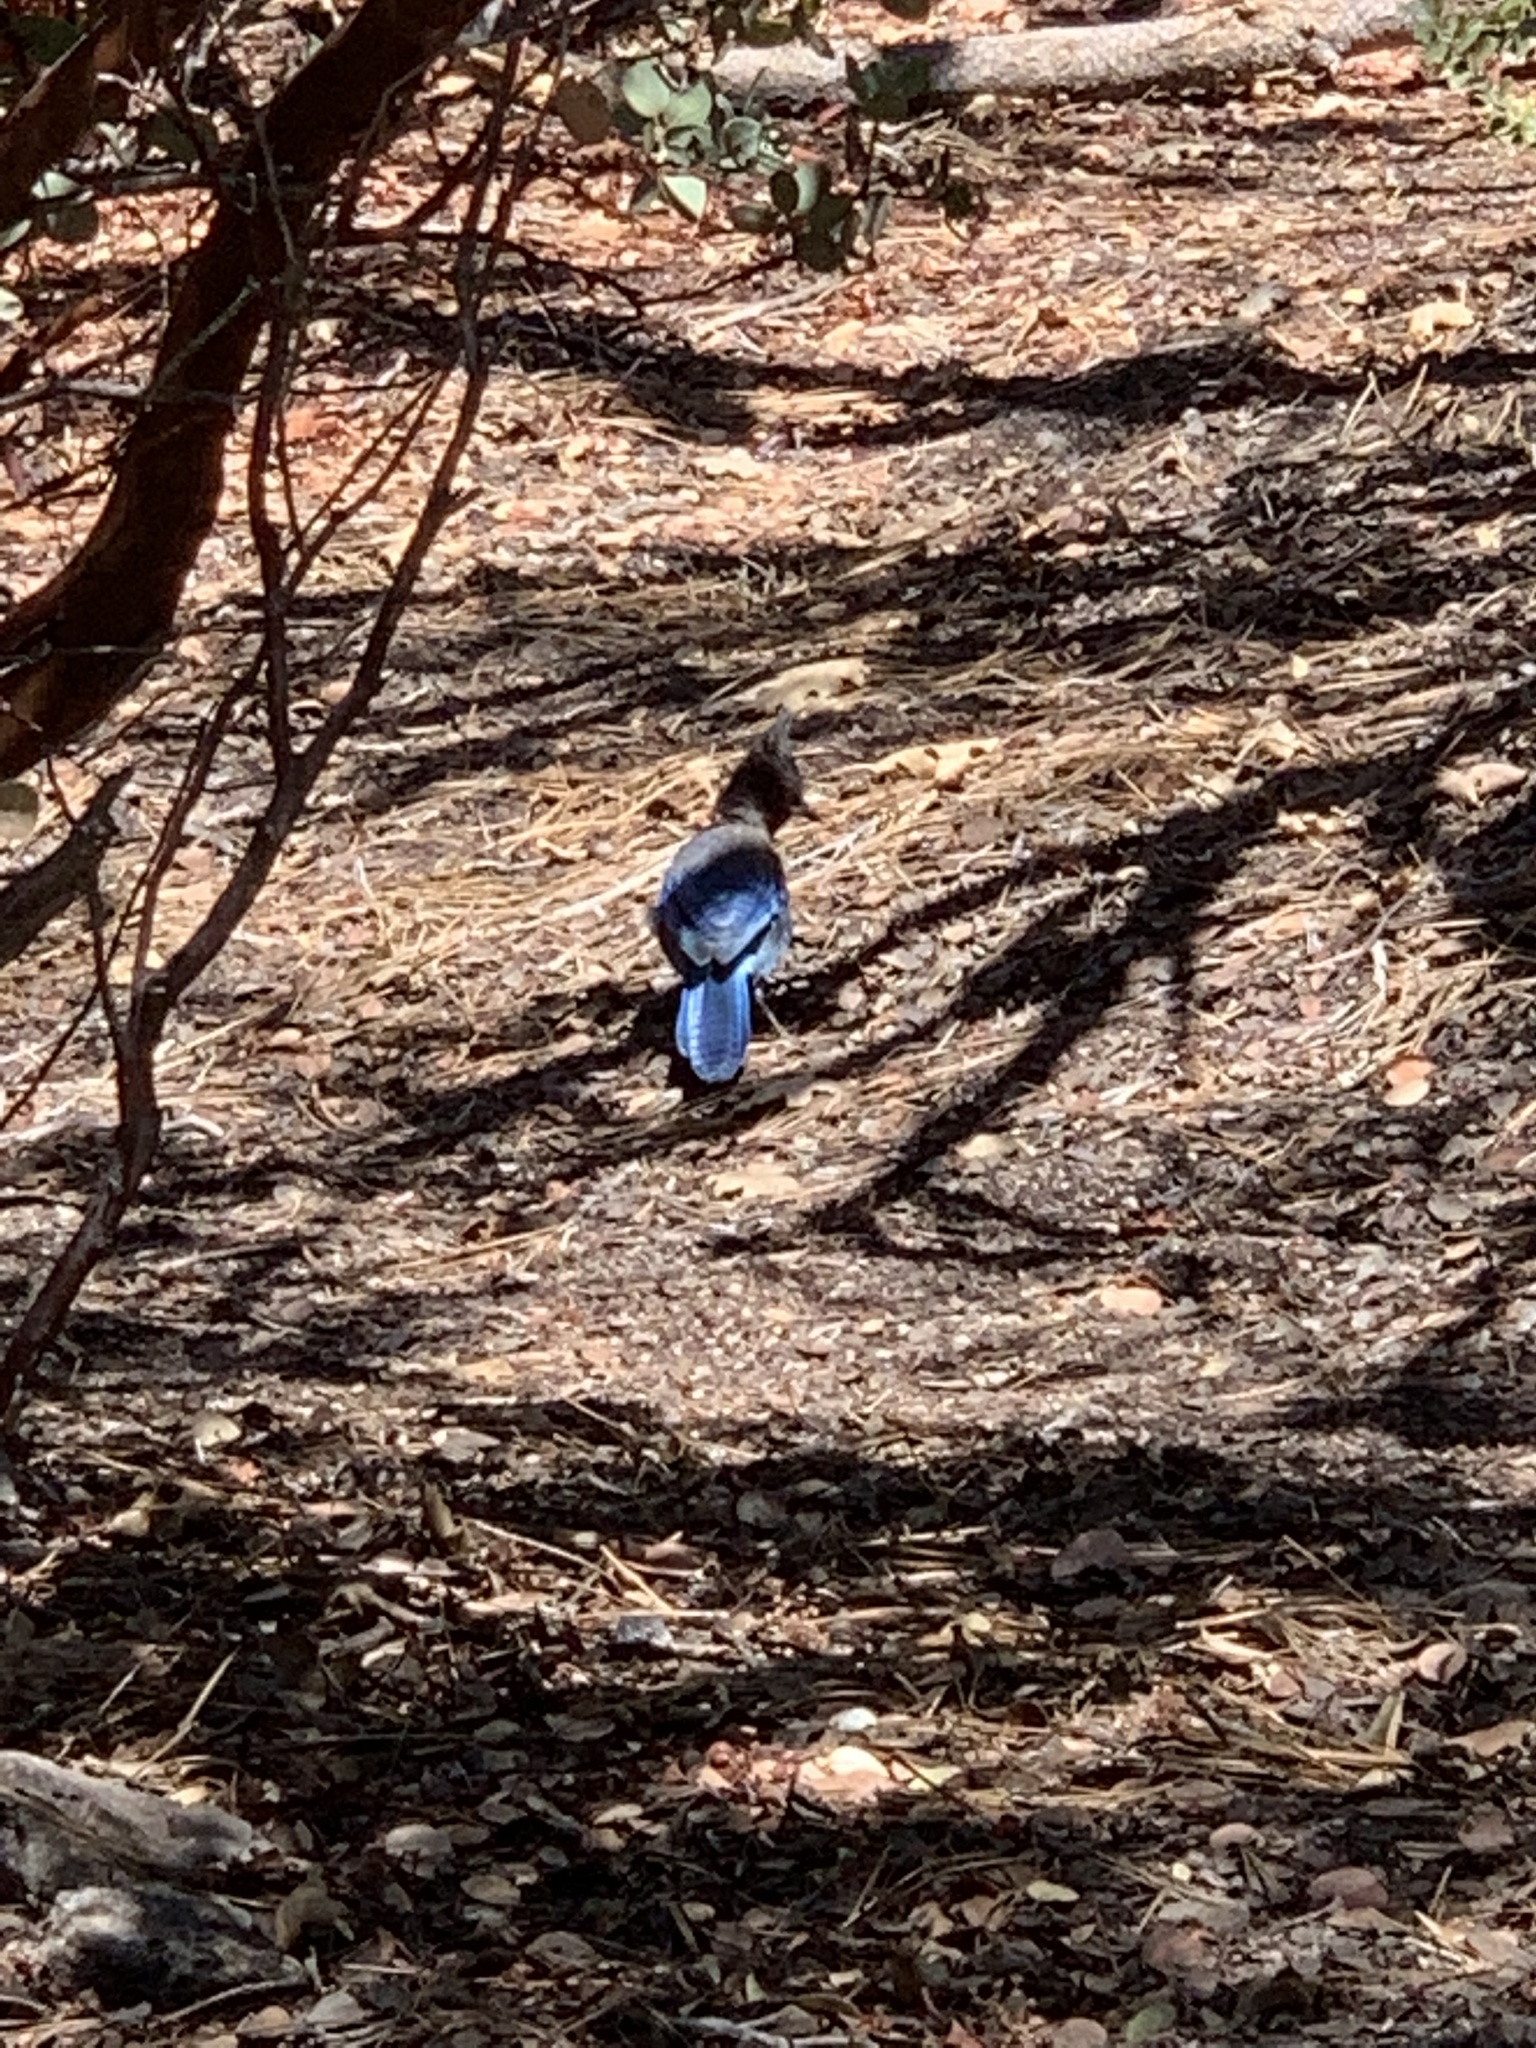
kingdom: Animalia
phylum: Chordata
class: Aves
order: Passeriformes
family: Corvidae
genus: Cyanocitta
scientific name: Cyanocitta stelleri
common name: Steller's jay
